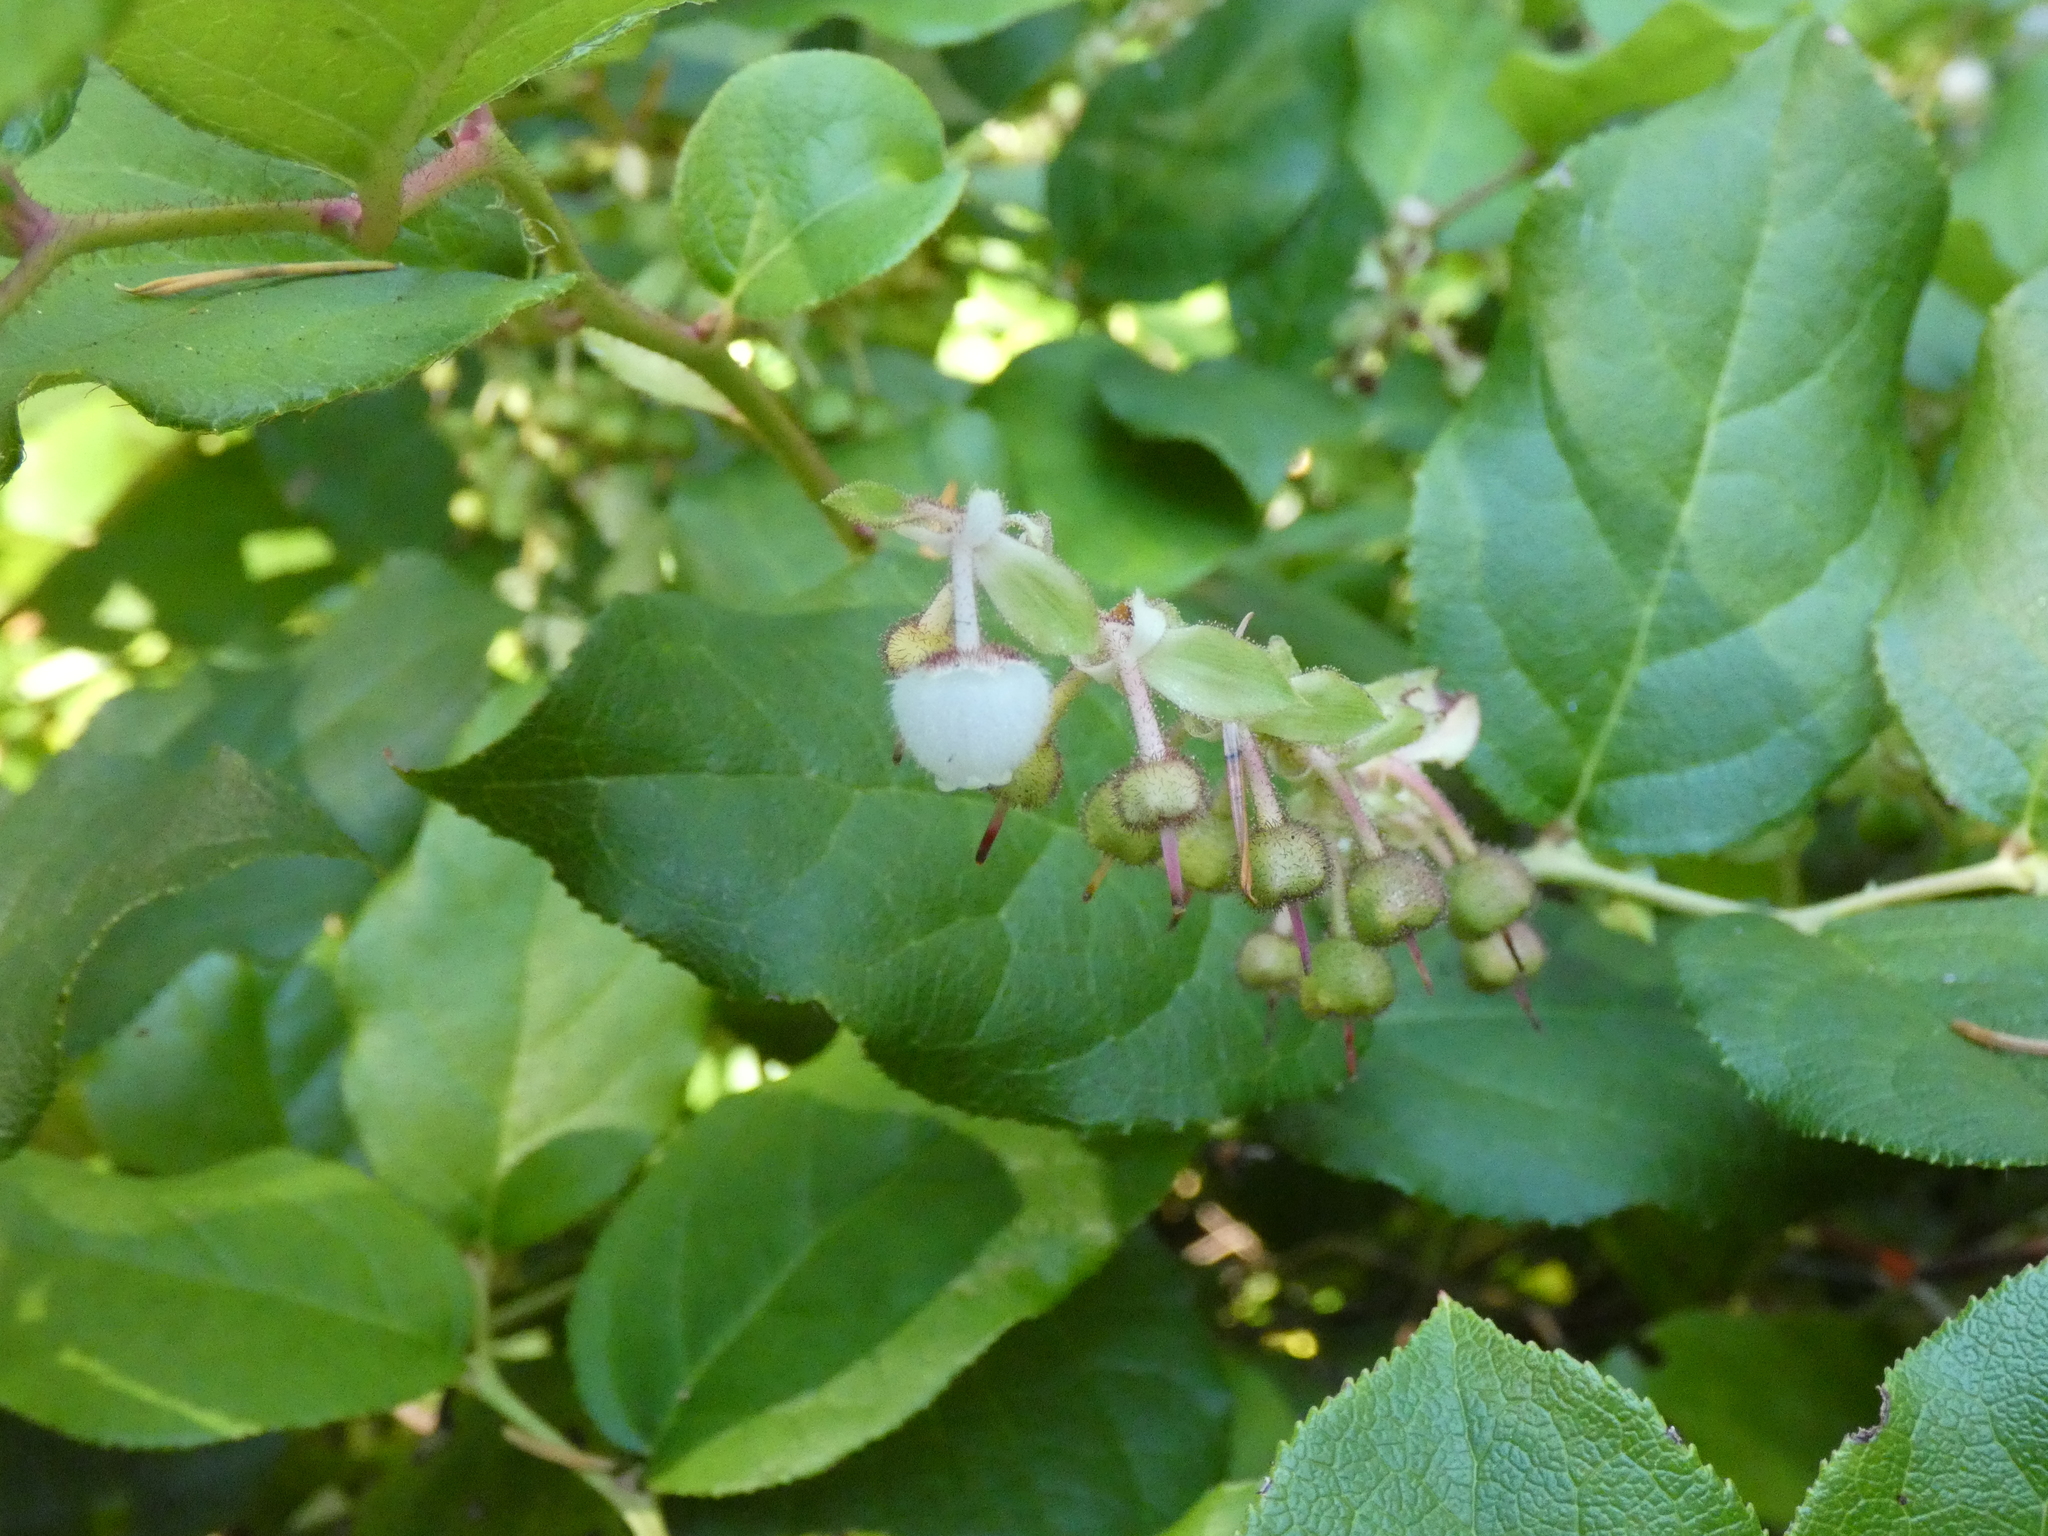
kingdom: Plantae
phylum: Tracheophyta
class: Magnoliopsida
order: Ericales
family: Ericaceae
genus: Gaultheria
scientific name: Gaultheria shallon
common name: Shallon
